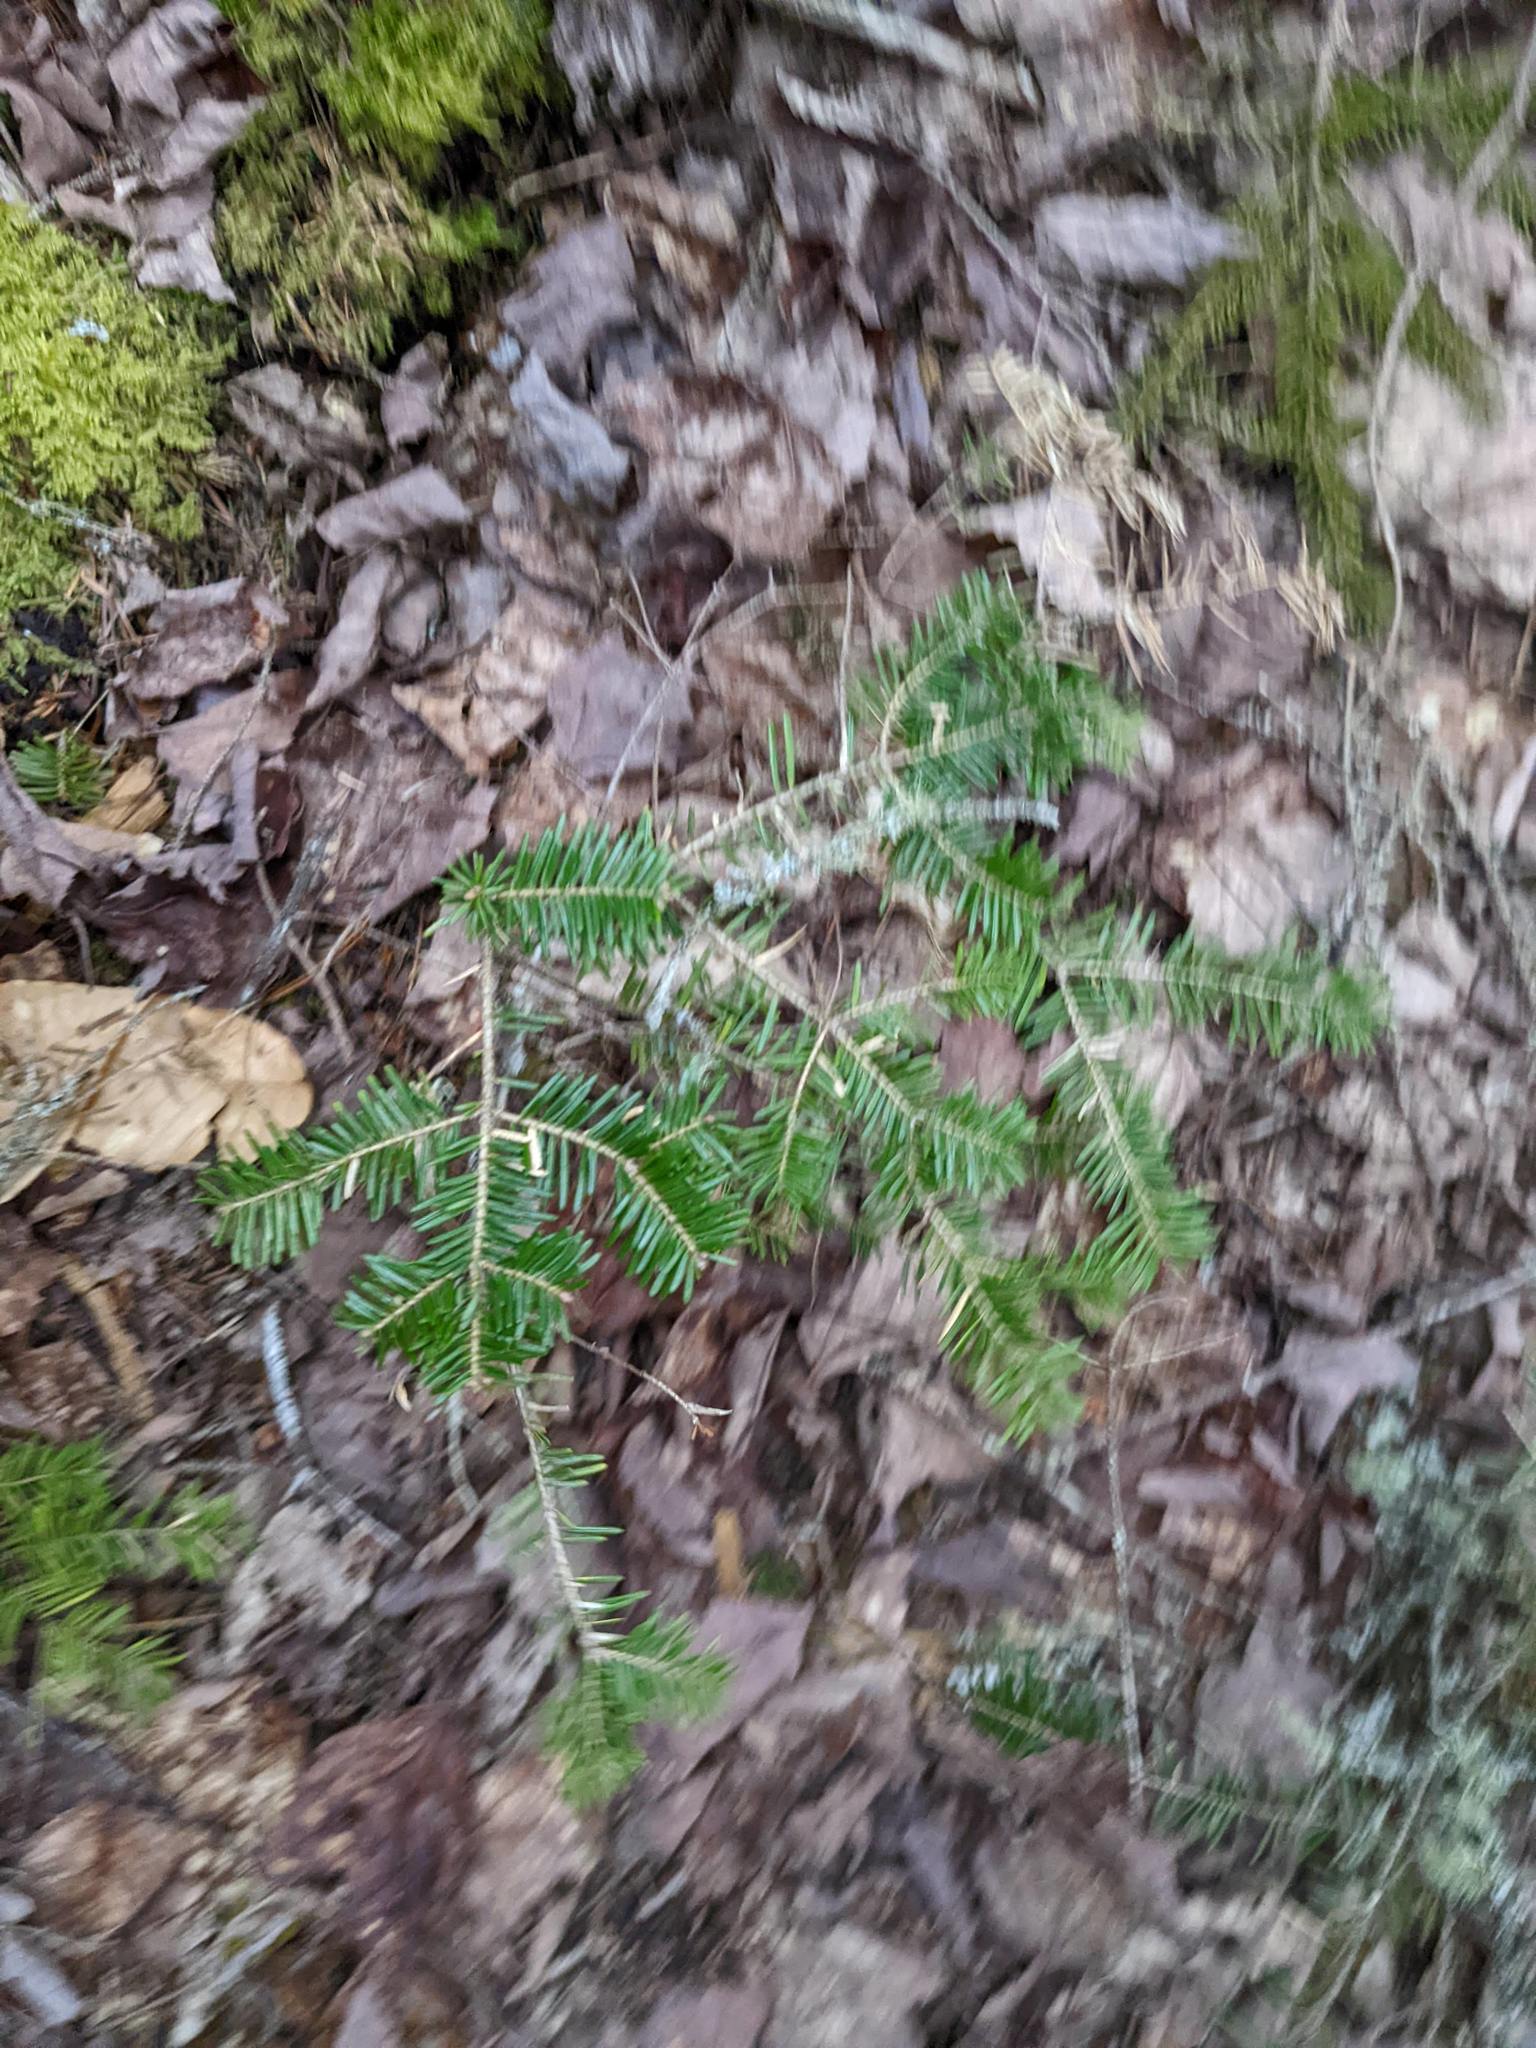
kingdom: Plantae
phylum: Tracheophyta
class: Pinopsida
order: Pinales
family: Pinaceae
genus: Abies
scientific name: Abies balsamea
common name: Balsam fir
